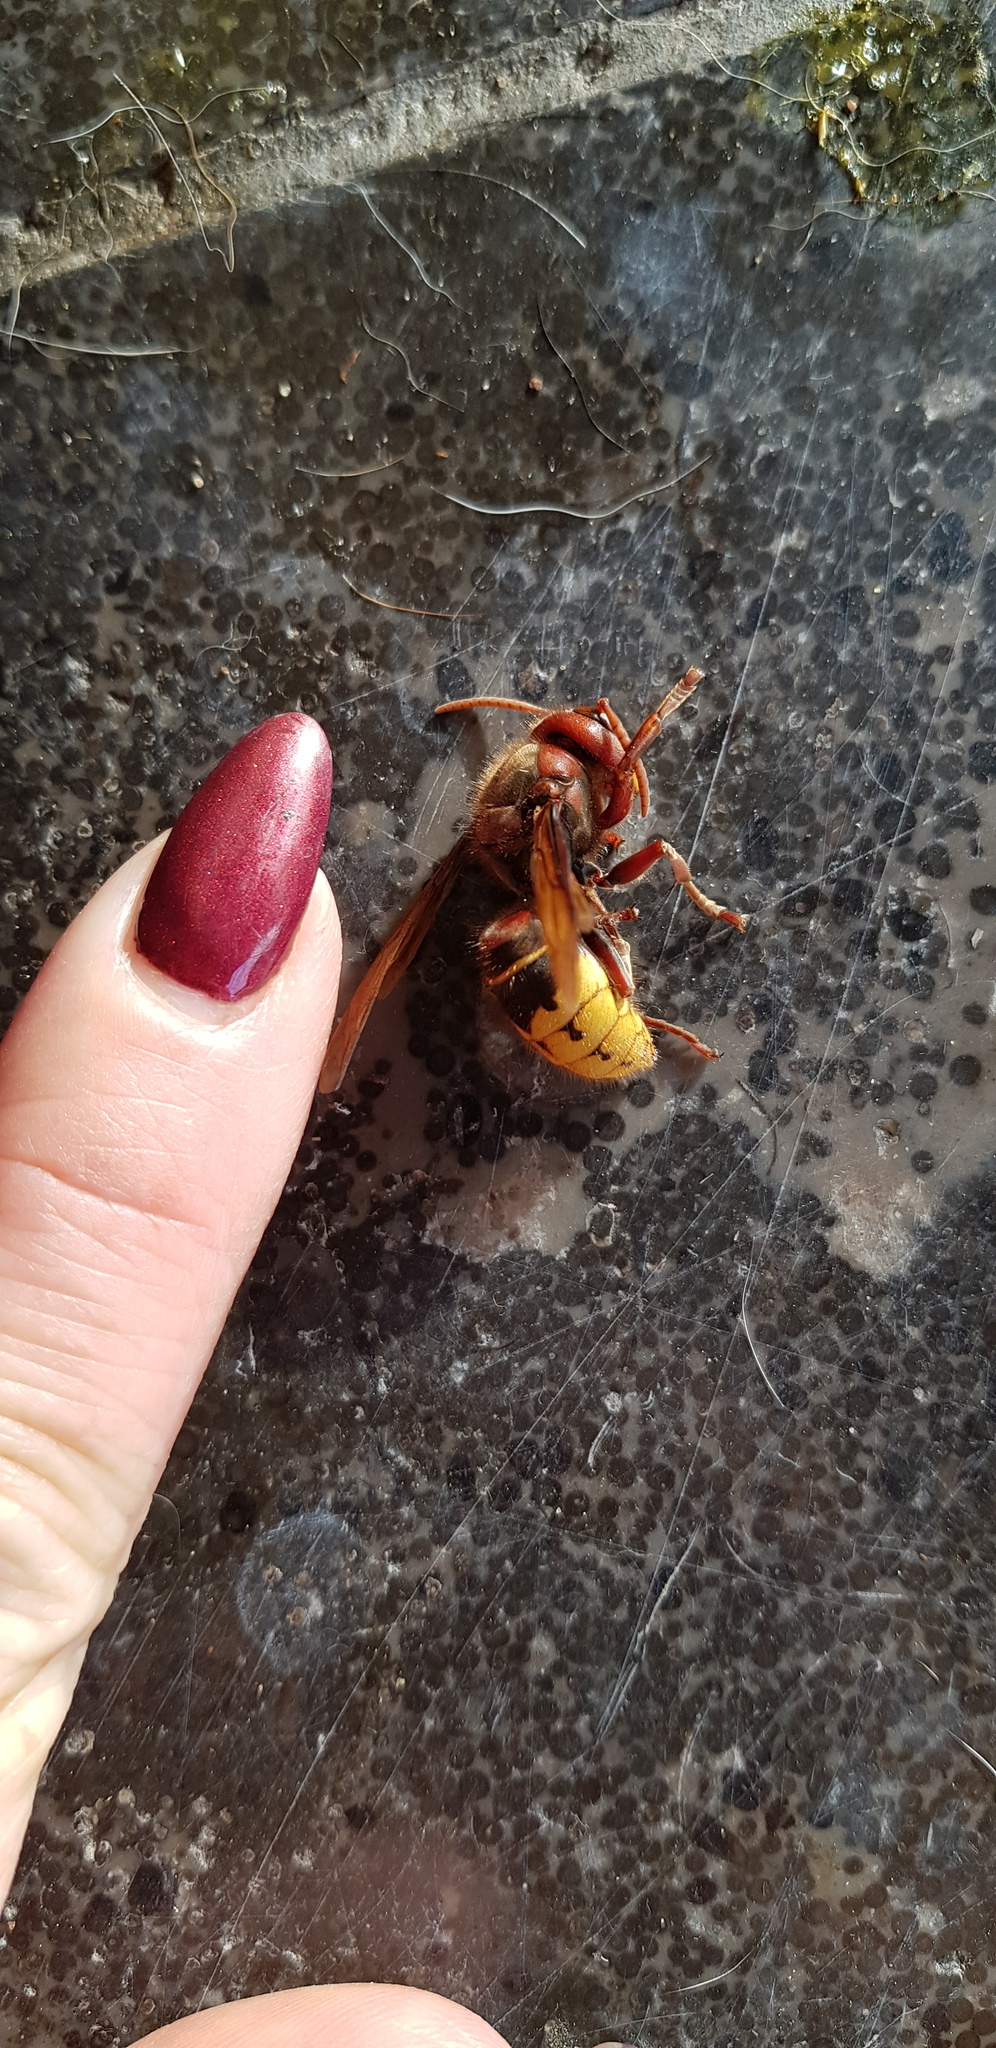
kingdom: Animalia
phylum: Arthropoda
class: Insecta
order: Hymenoptera
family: Vespidae
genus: Vespa
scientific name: Vespa crabro
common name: Hornet
